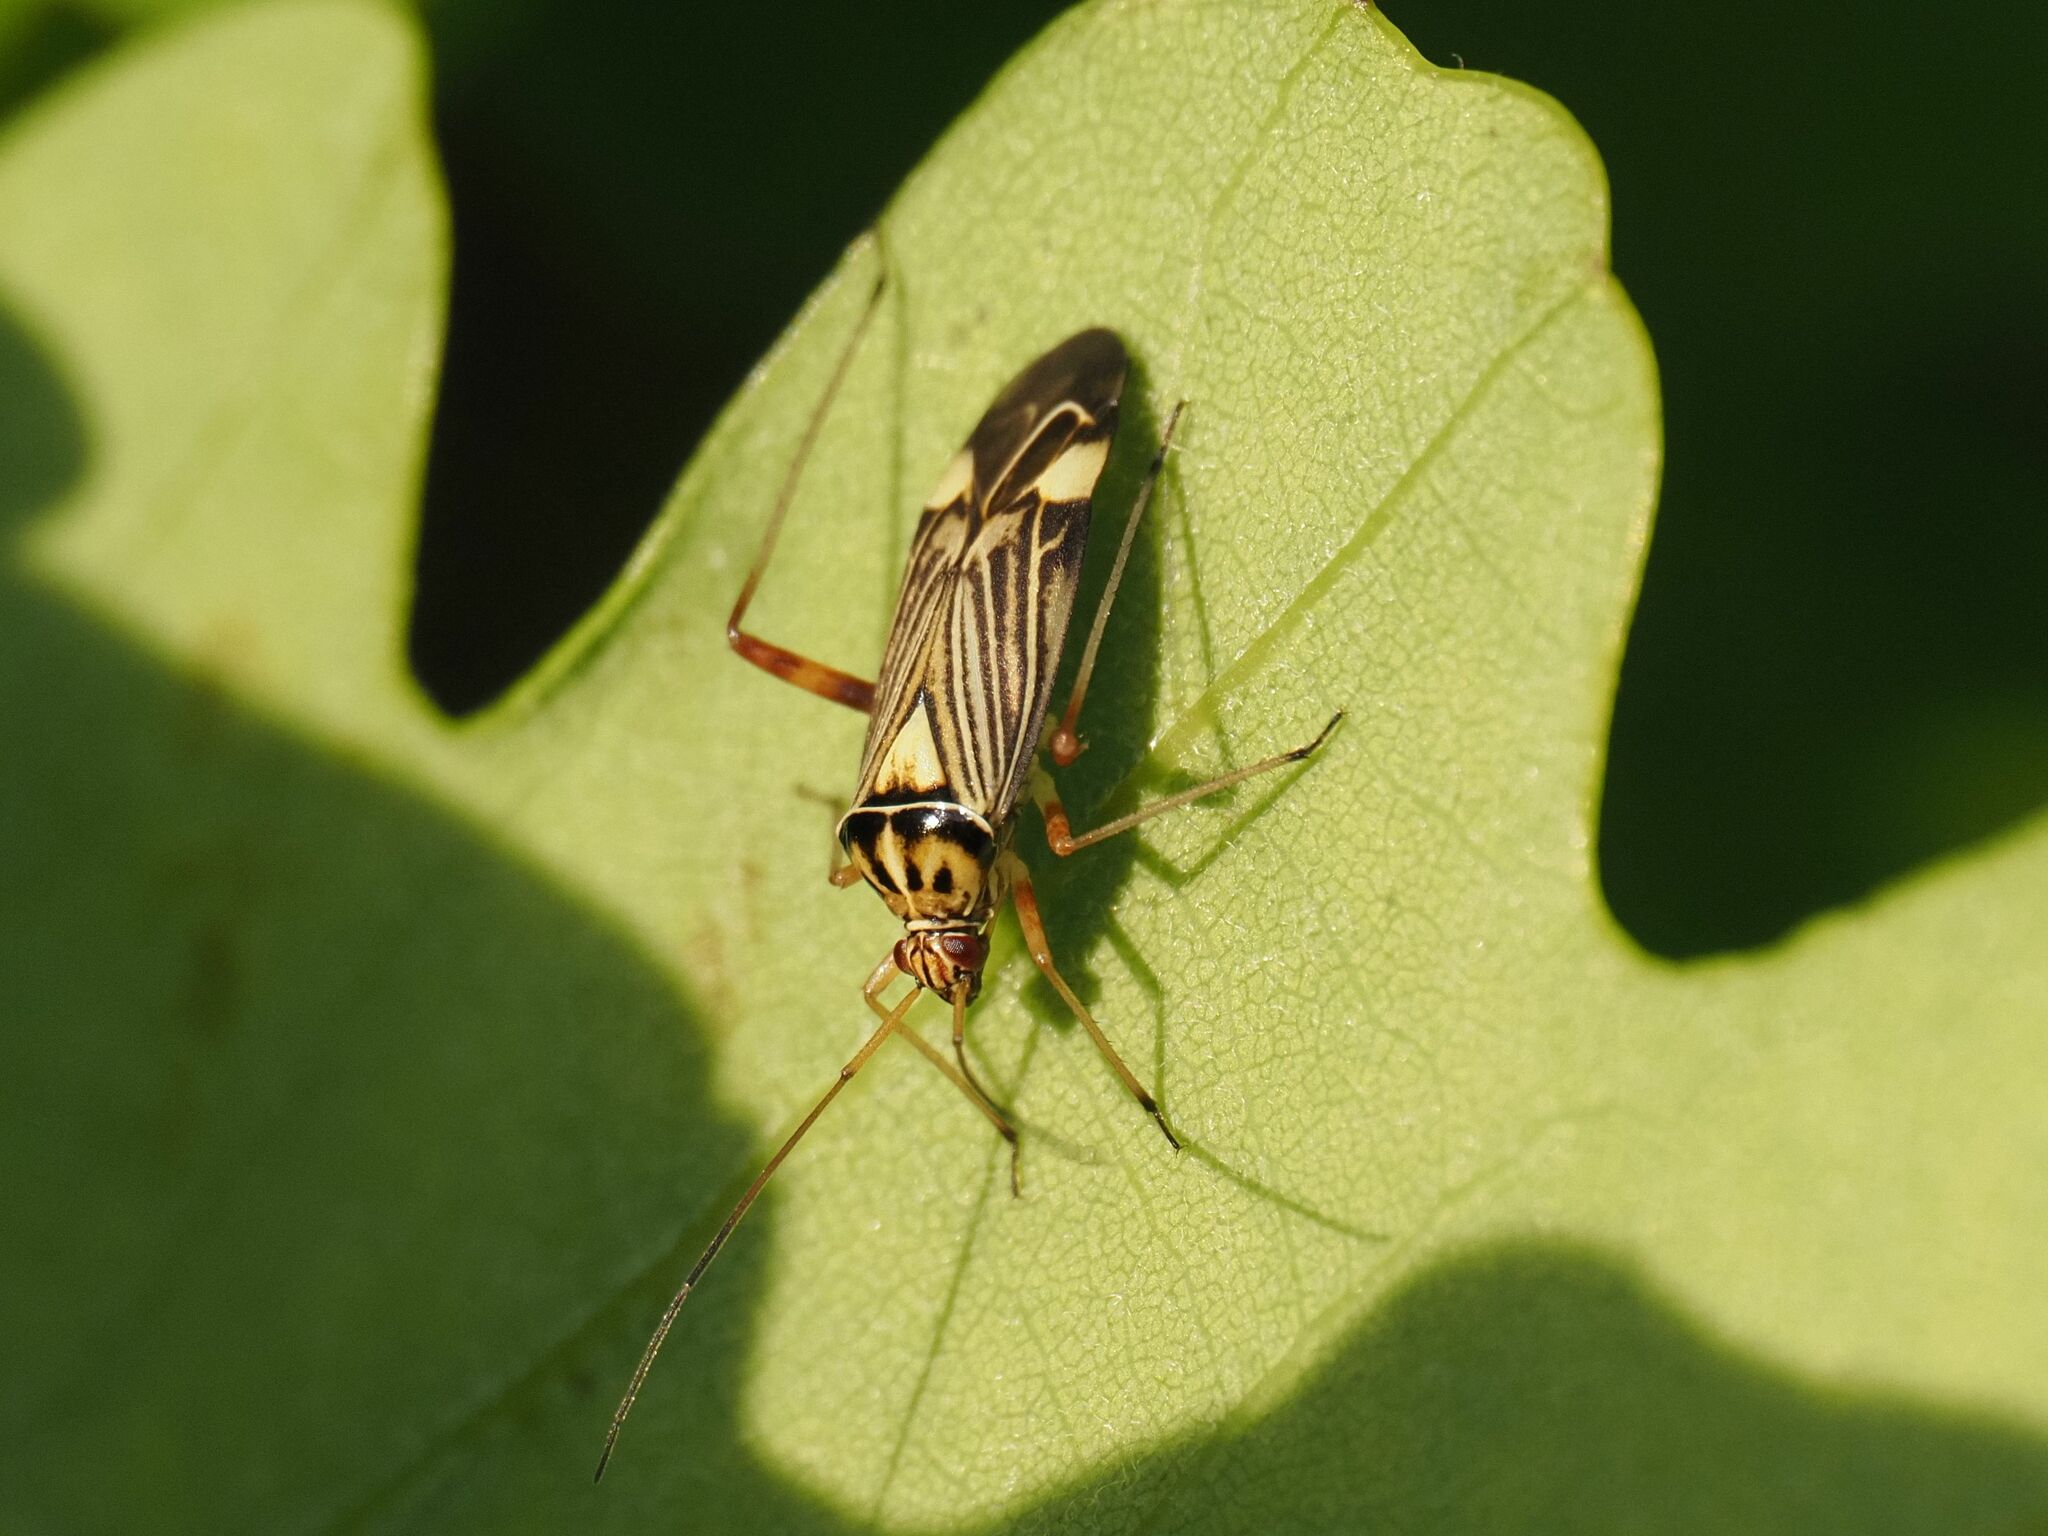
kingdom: Animalia
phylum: Arthropoda
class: Insecta
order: Hemiptera
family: Miridae
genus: Rhabdomiris
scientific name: Rhabdomiris striatellus
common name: Plant bug
